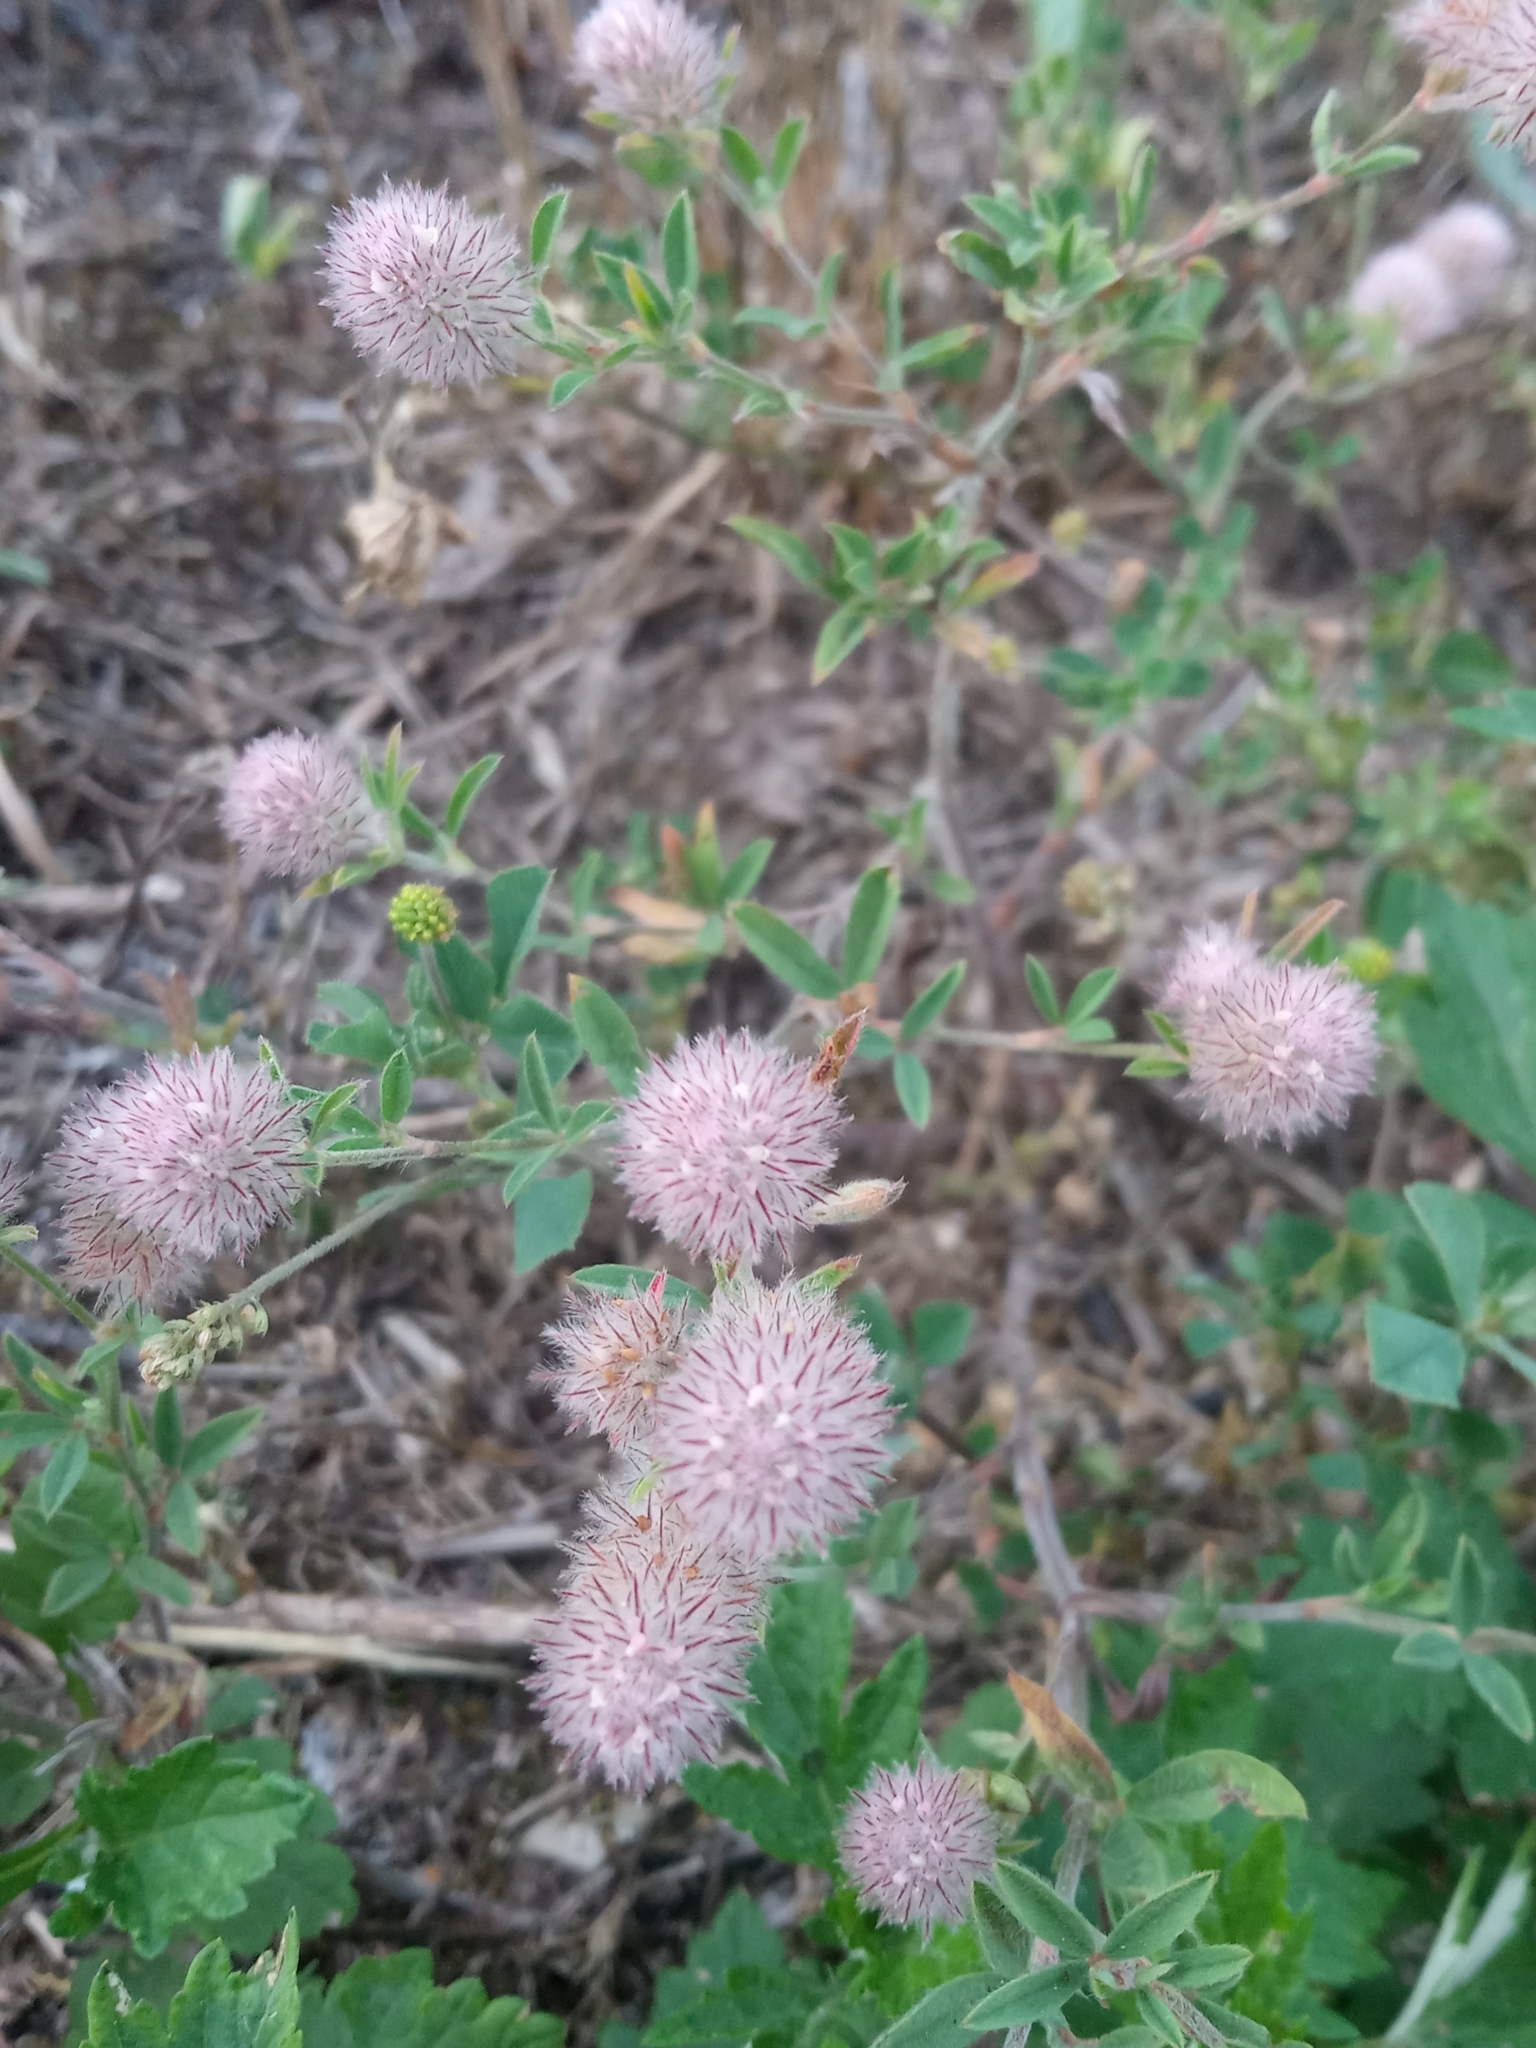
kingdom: Plantae
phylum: Tracheophyta
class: Magnoliopsida
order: Fabales
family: Fabaceae
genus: Trifolium
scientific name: Trifolium arvense
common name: Hare's-foot clover
